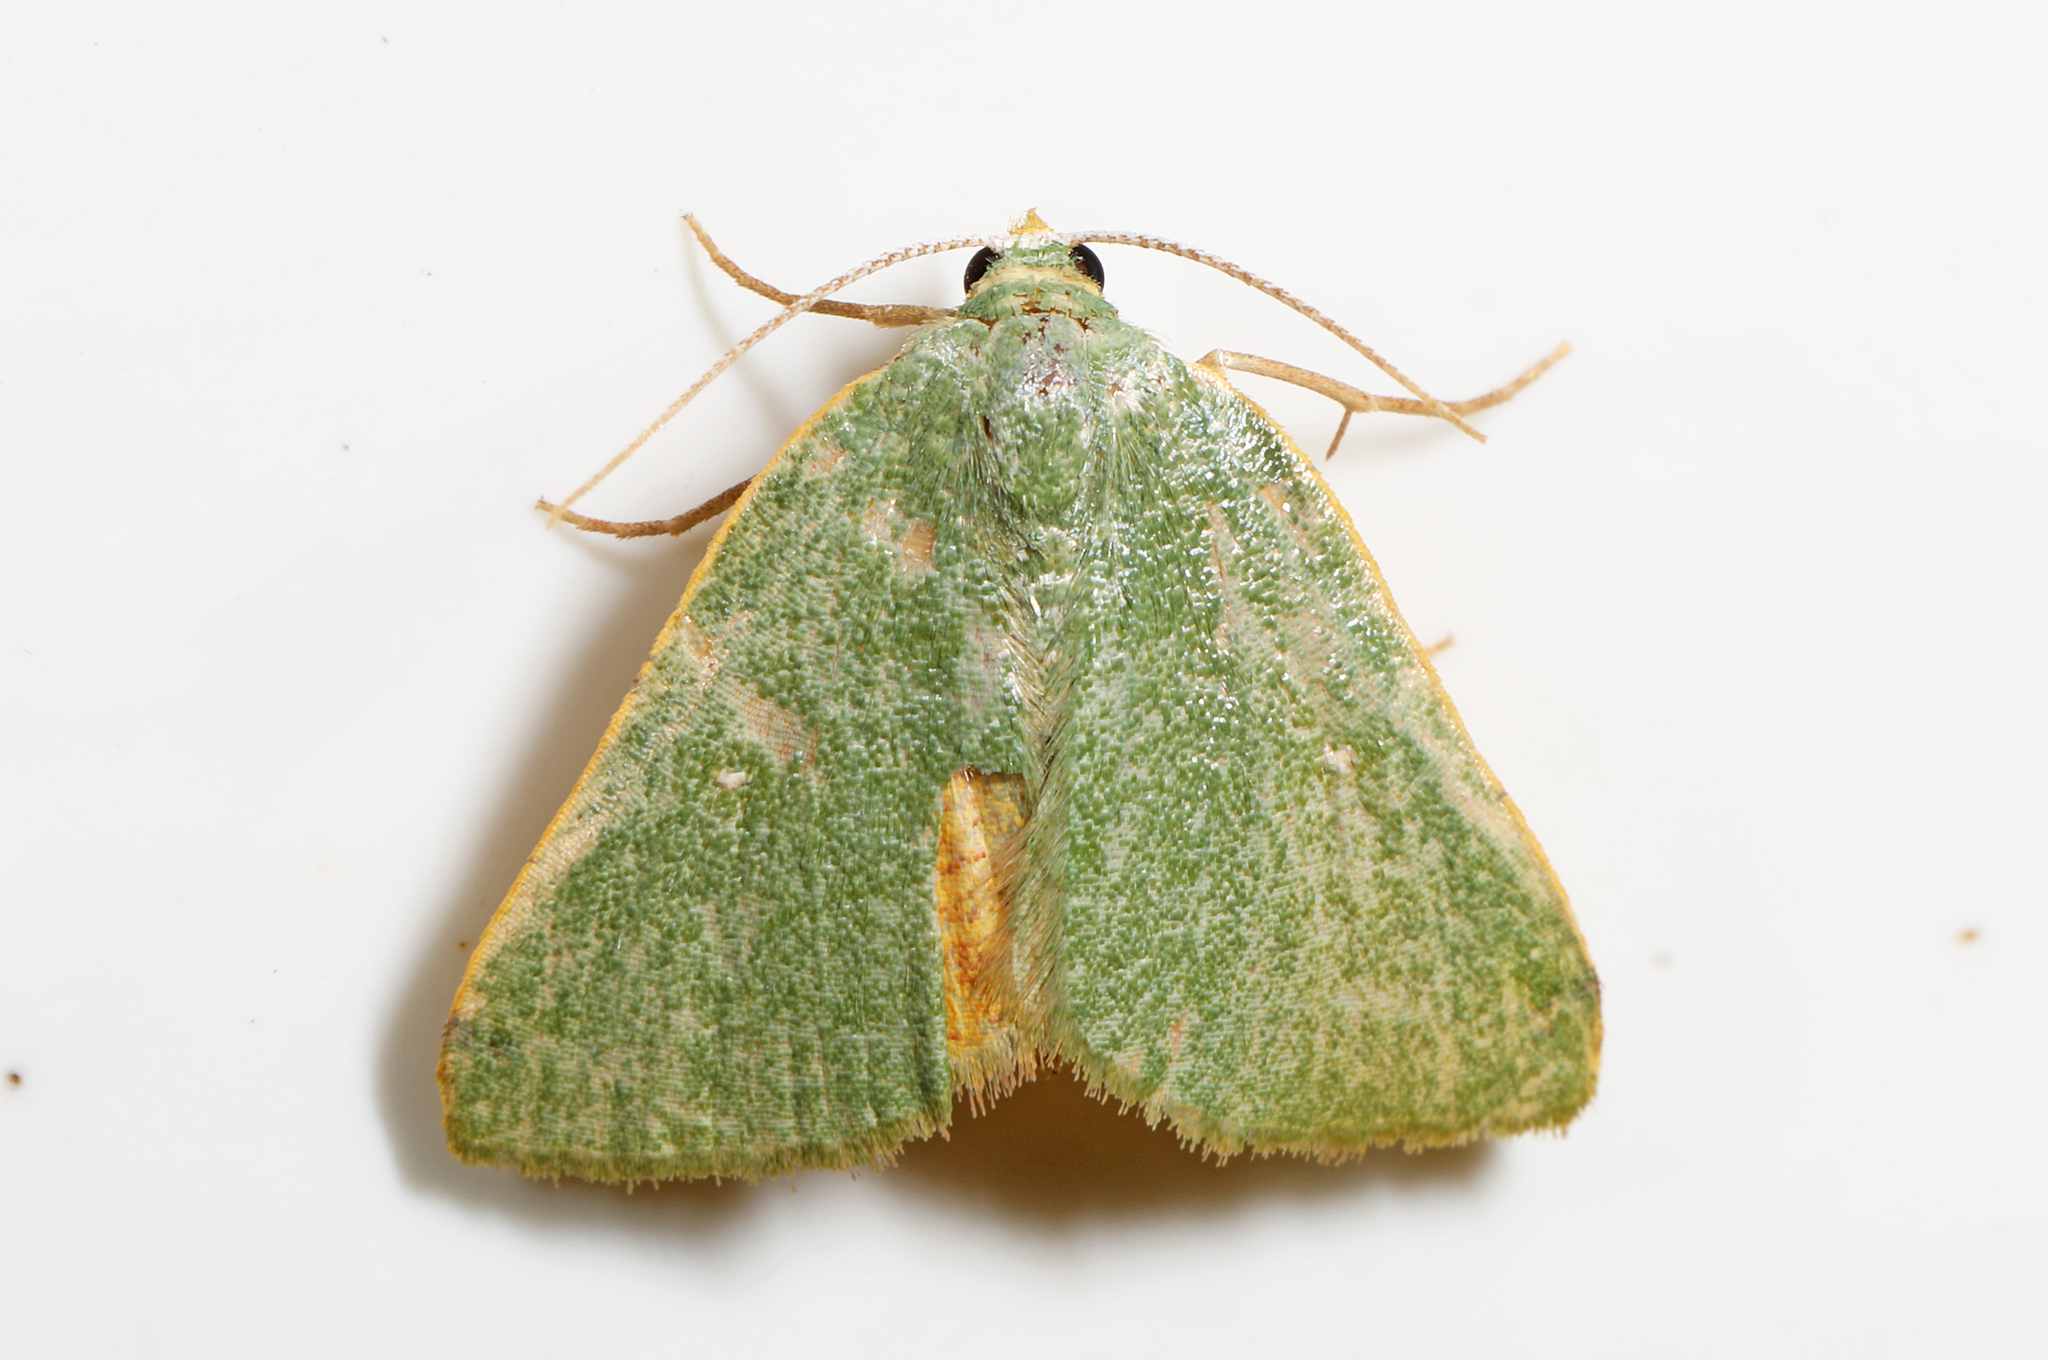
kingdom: Animalia
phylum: Arthropoda
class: Insecta
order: Lepidoptera
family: Geometridae
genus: Chloraspilates
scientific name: Chloraspilates bicoloraria
